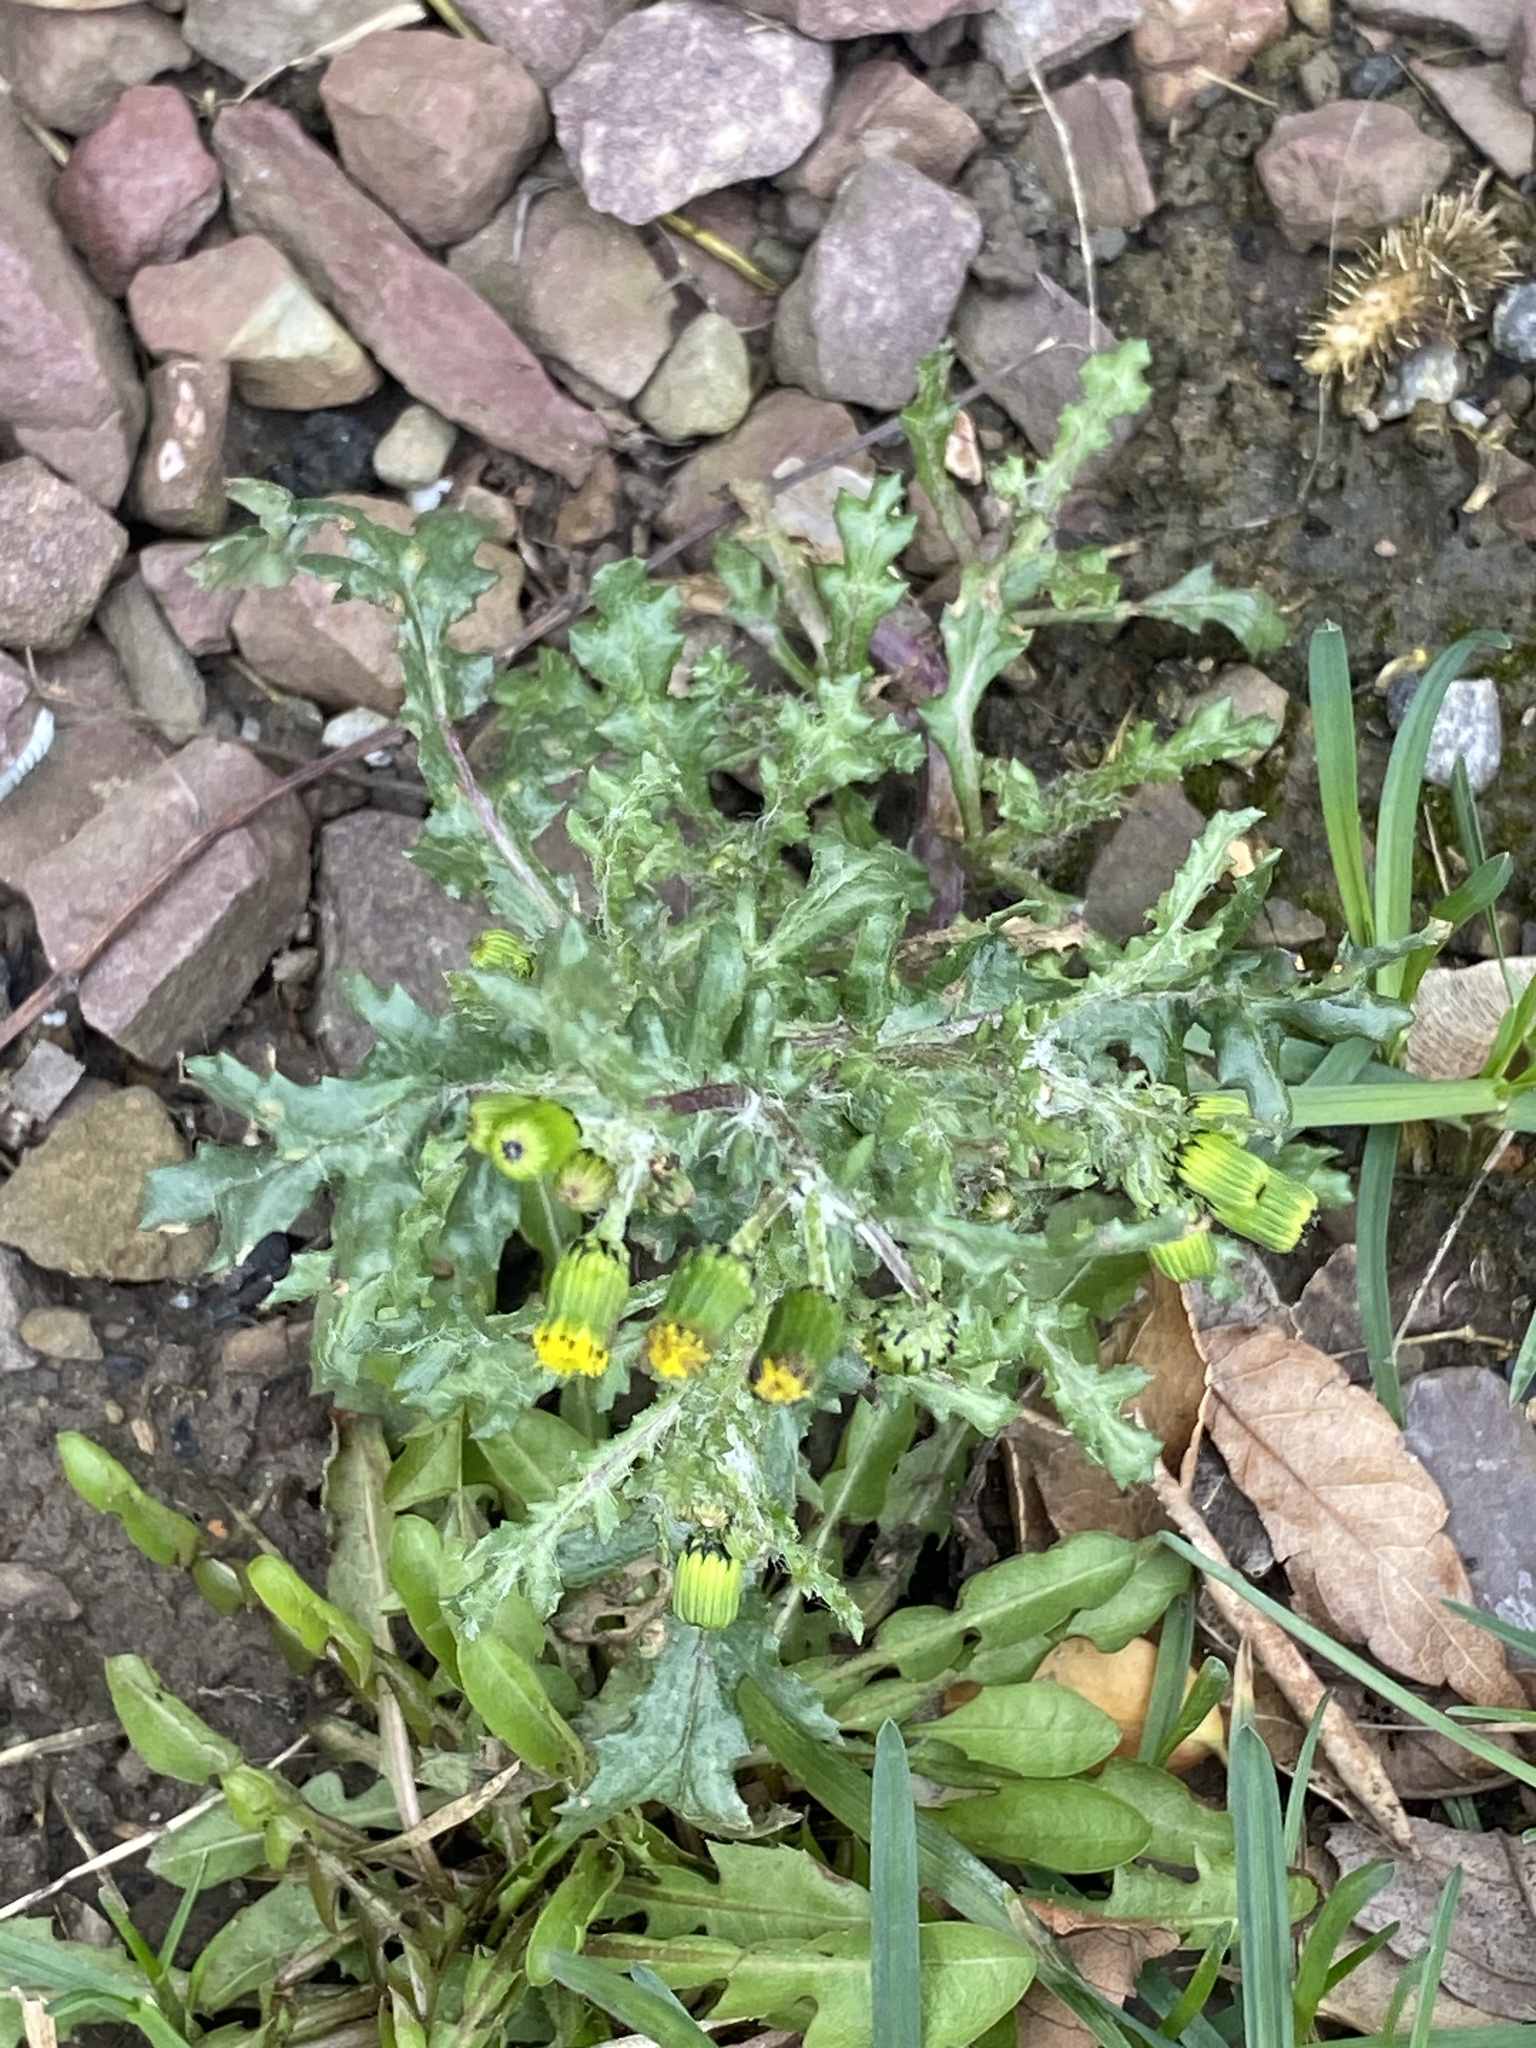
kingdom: Plantae
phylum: Tracheophyta
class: Magnoliopsida
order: Asterales
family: Asteraceae
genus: Senecio
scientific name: Senecio vulgaris
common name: Old-man-in-the-spring
